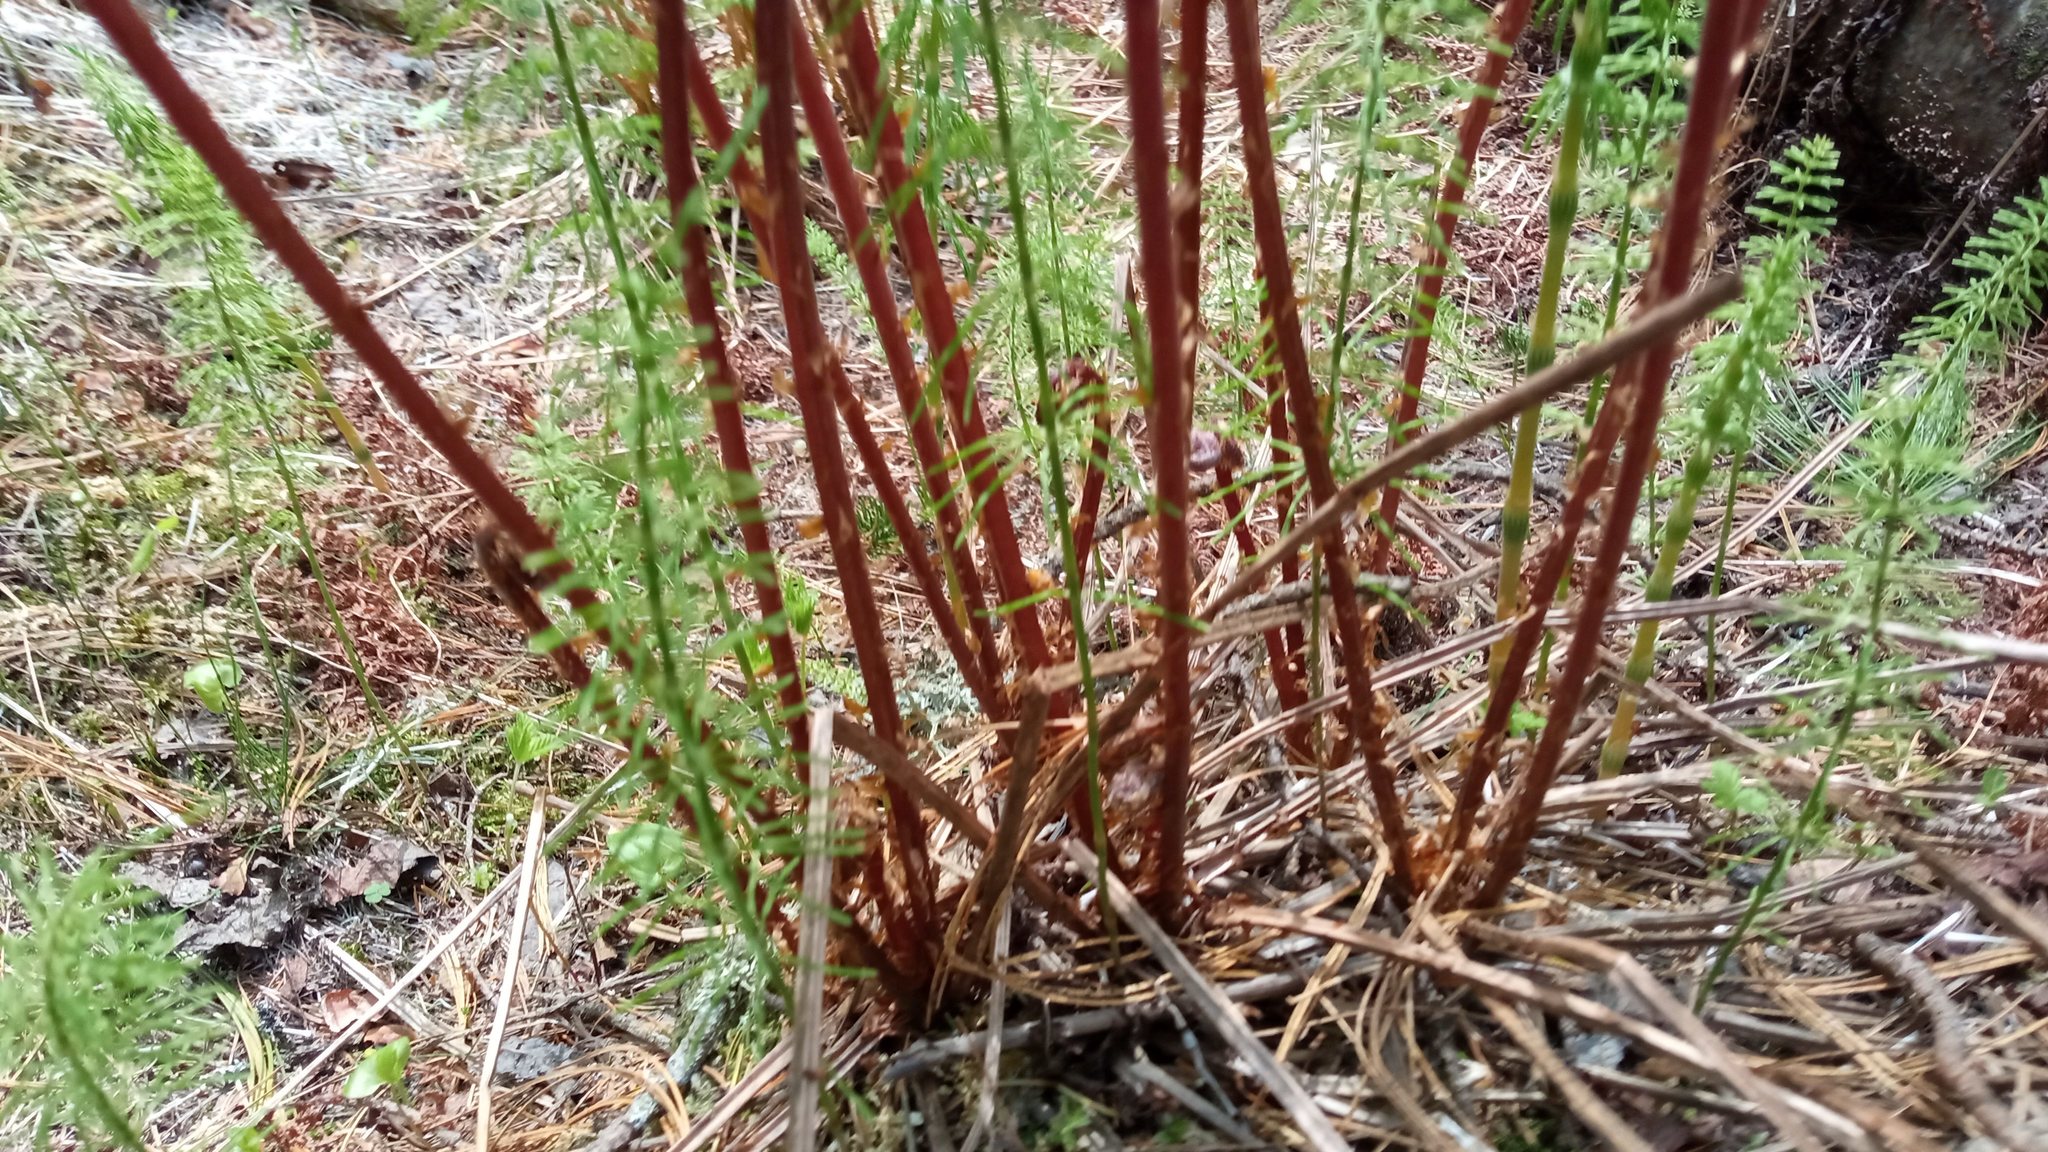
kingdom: Plantae
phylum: Tracheophyta
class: Polypodiopsida
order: Polypodiales
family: Athyriaceae
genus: Athyrium
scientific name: Athyrium filix-femina
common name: Lady fern
